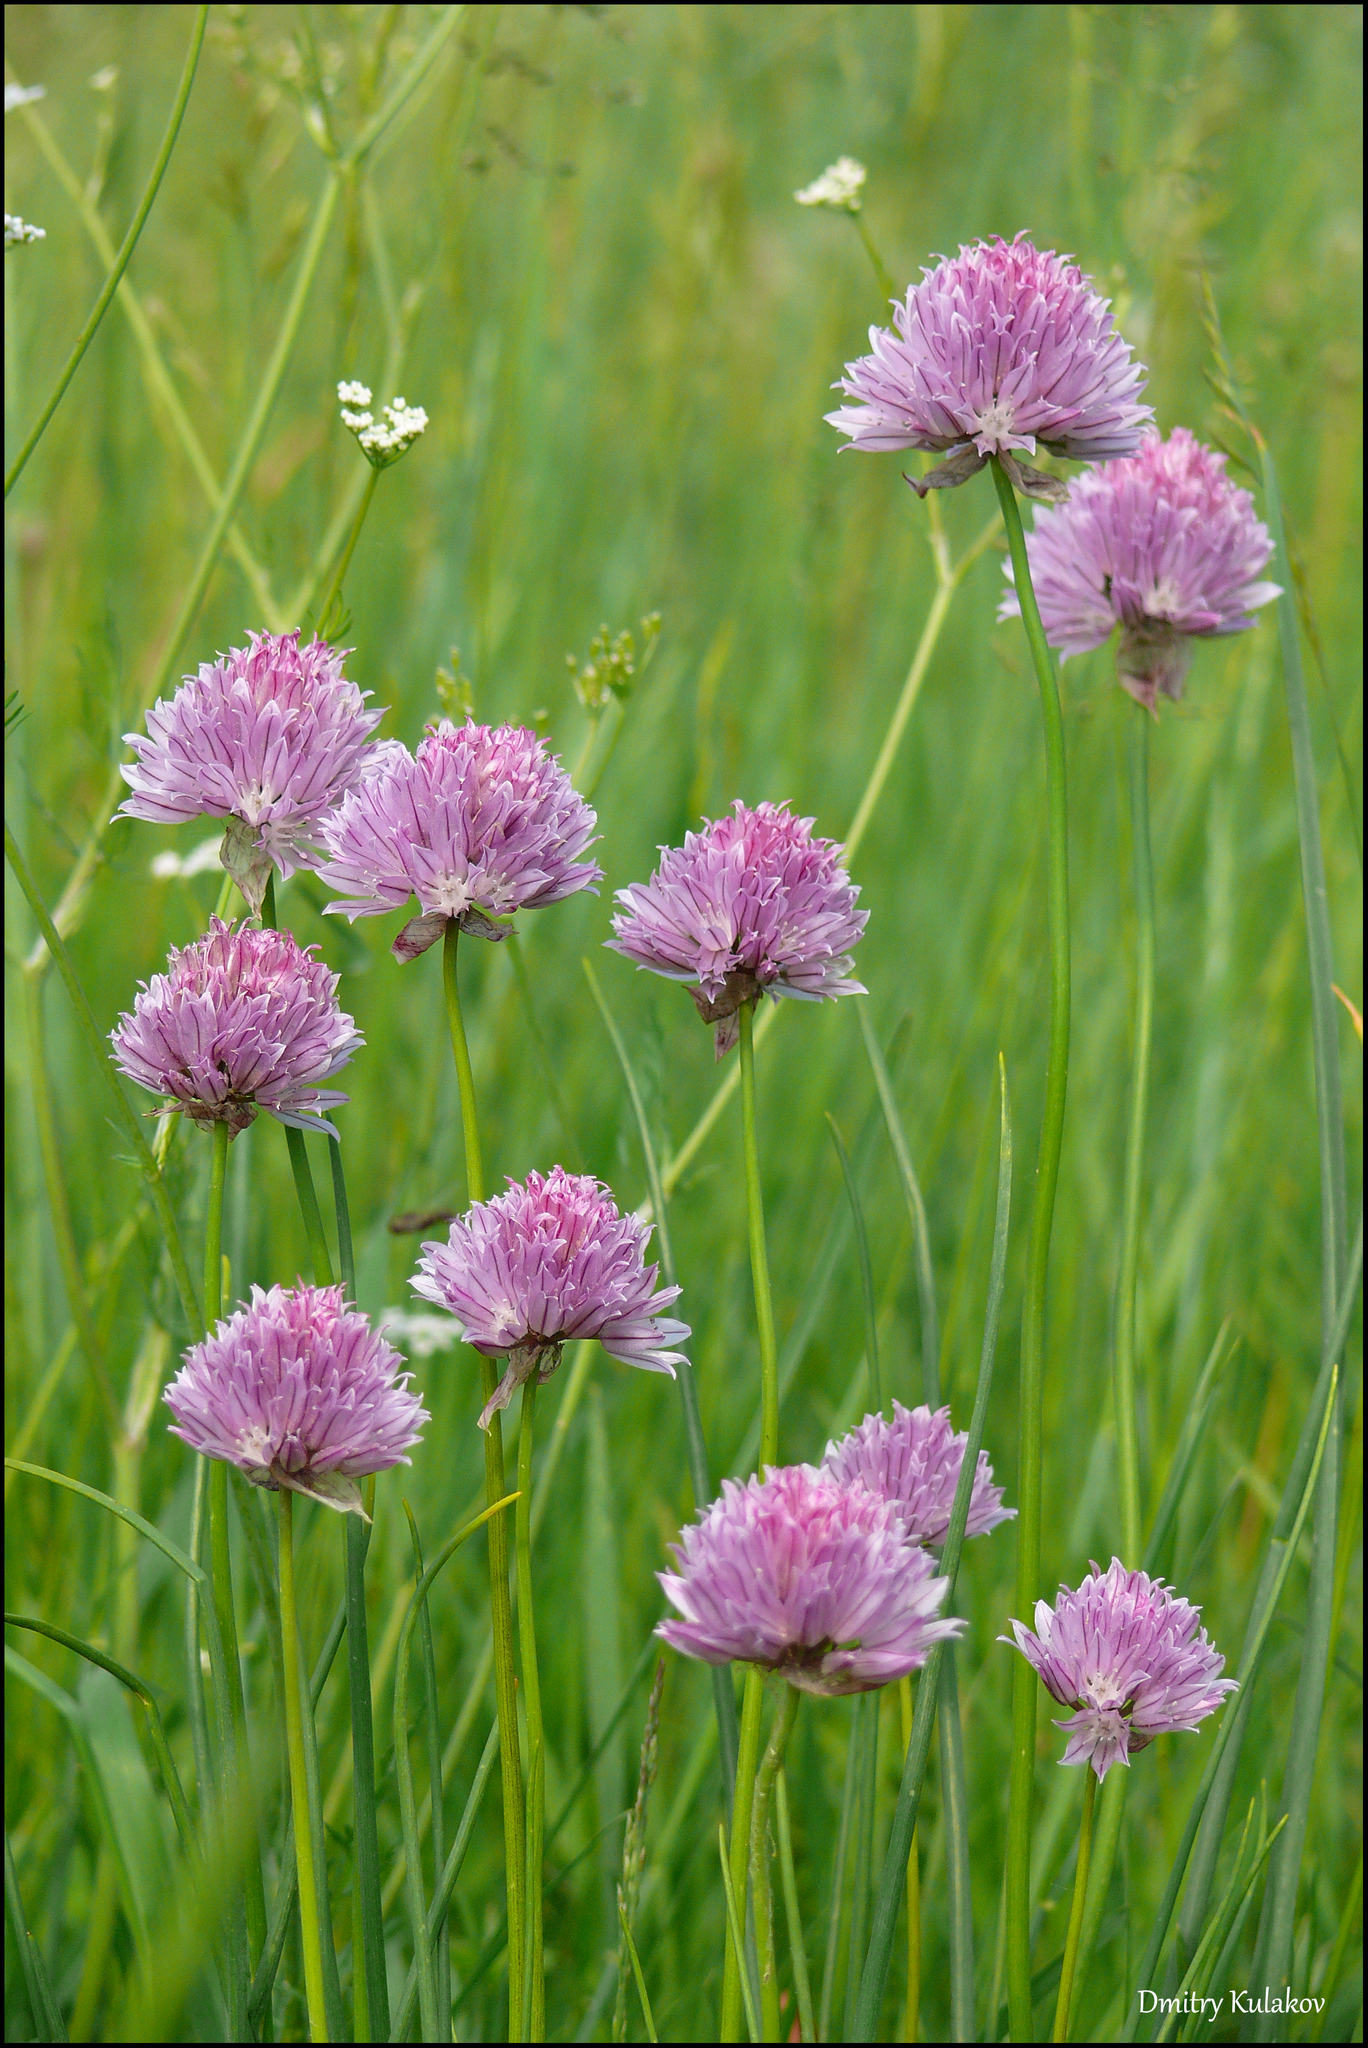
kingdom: Plantae
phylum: Tracheophyta
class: Liliopsida
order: Asparagales
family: Amaryllidaceae
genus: Allium
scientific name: Allium schoenoprasum
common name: Chives
